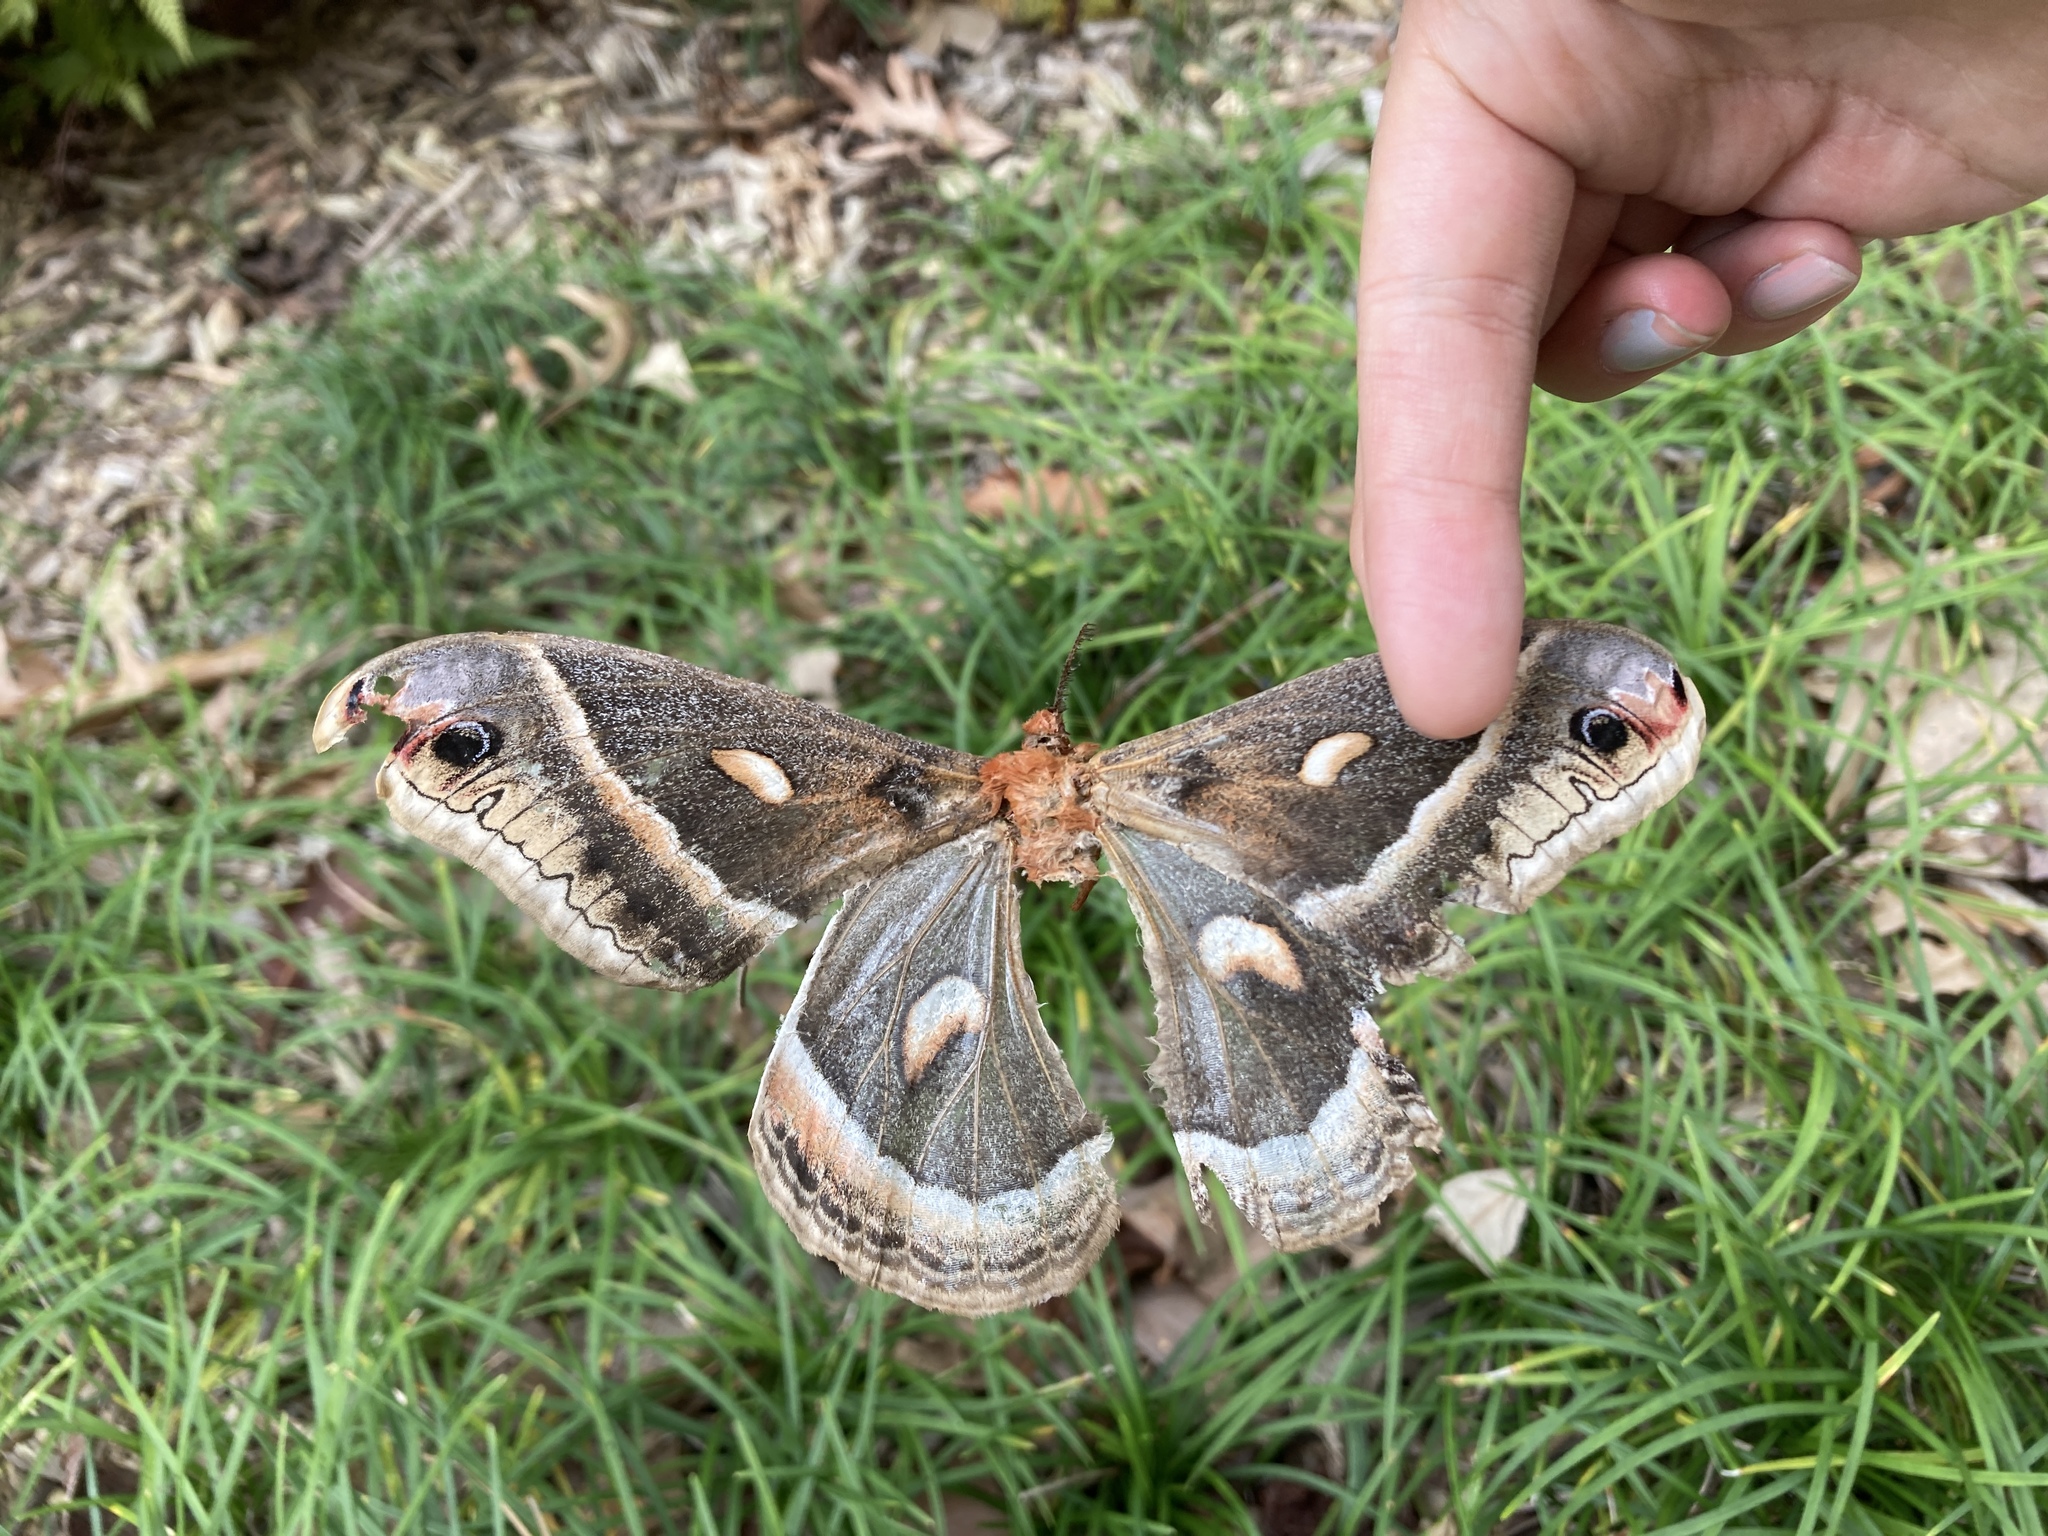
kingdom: Animalia
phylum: Arthropoda
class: Insecta
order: Lepidoptera
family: Saturniidae
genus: Hyalophora
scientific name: Hyalophora cecropia
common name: Cecropia silkmoth
